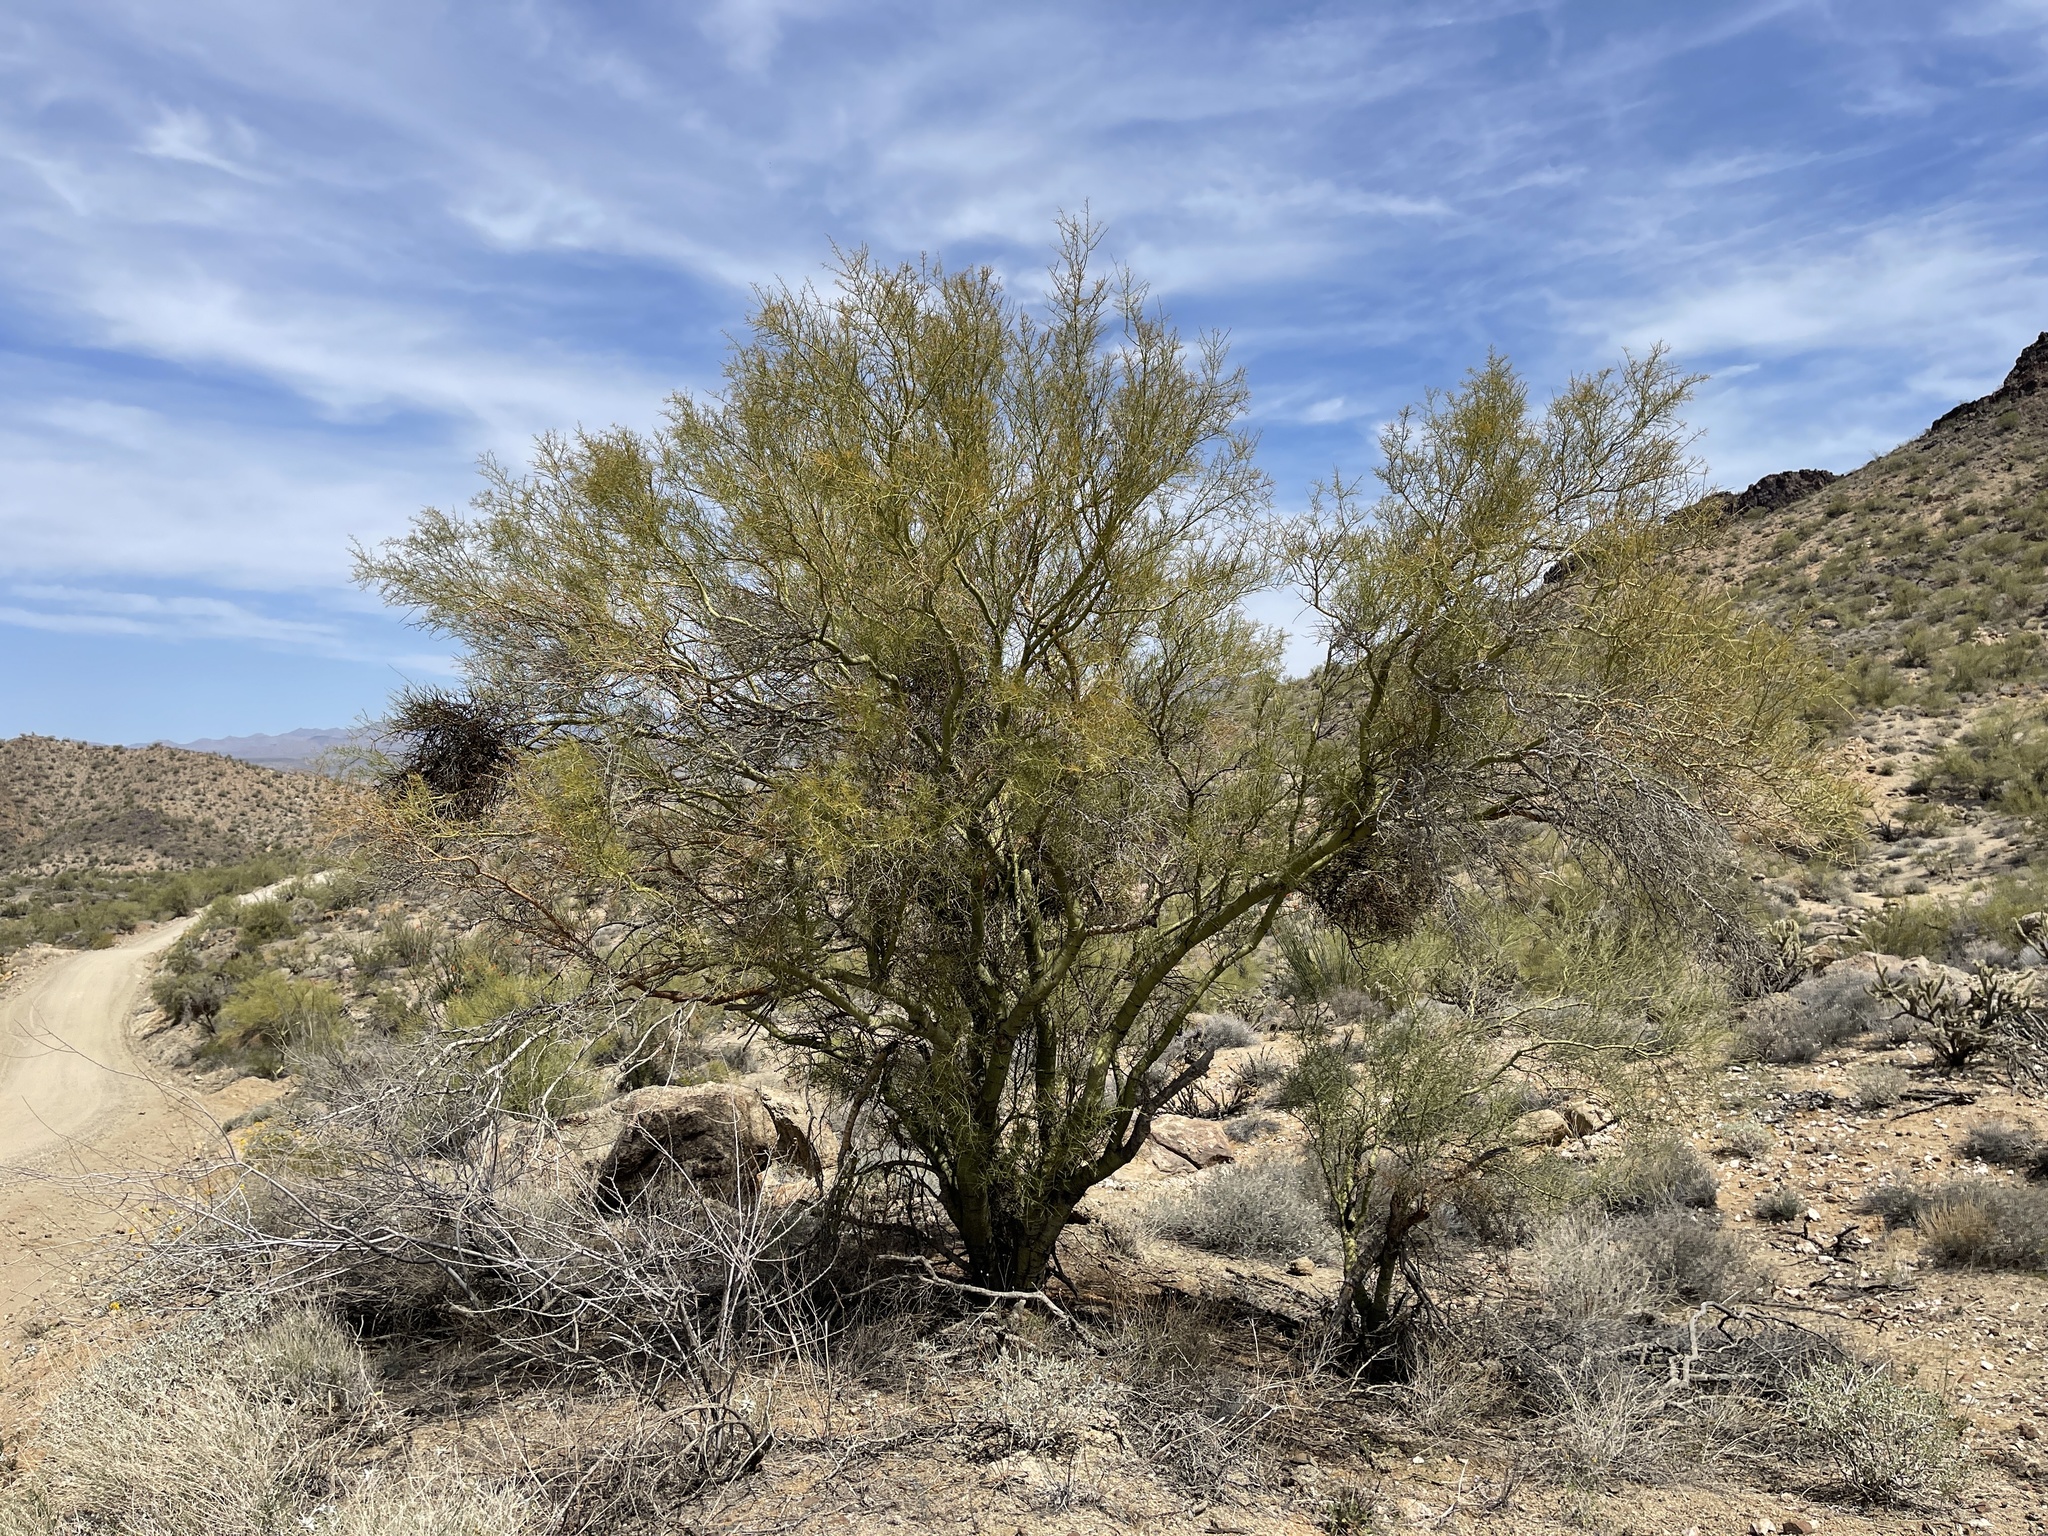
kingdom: Plantae
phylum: Tracheophyta
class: Magnoliopsida
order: Fabales
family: Fabaceae
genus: Parkinsonia
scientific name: Parkinsonia microphylla
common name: Yellow paloverde
